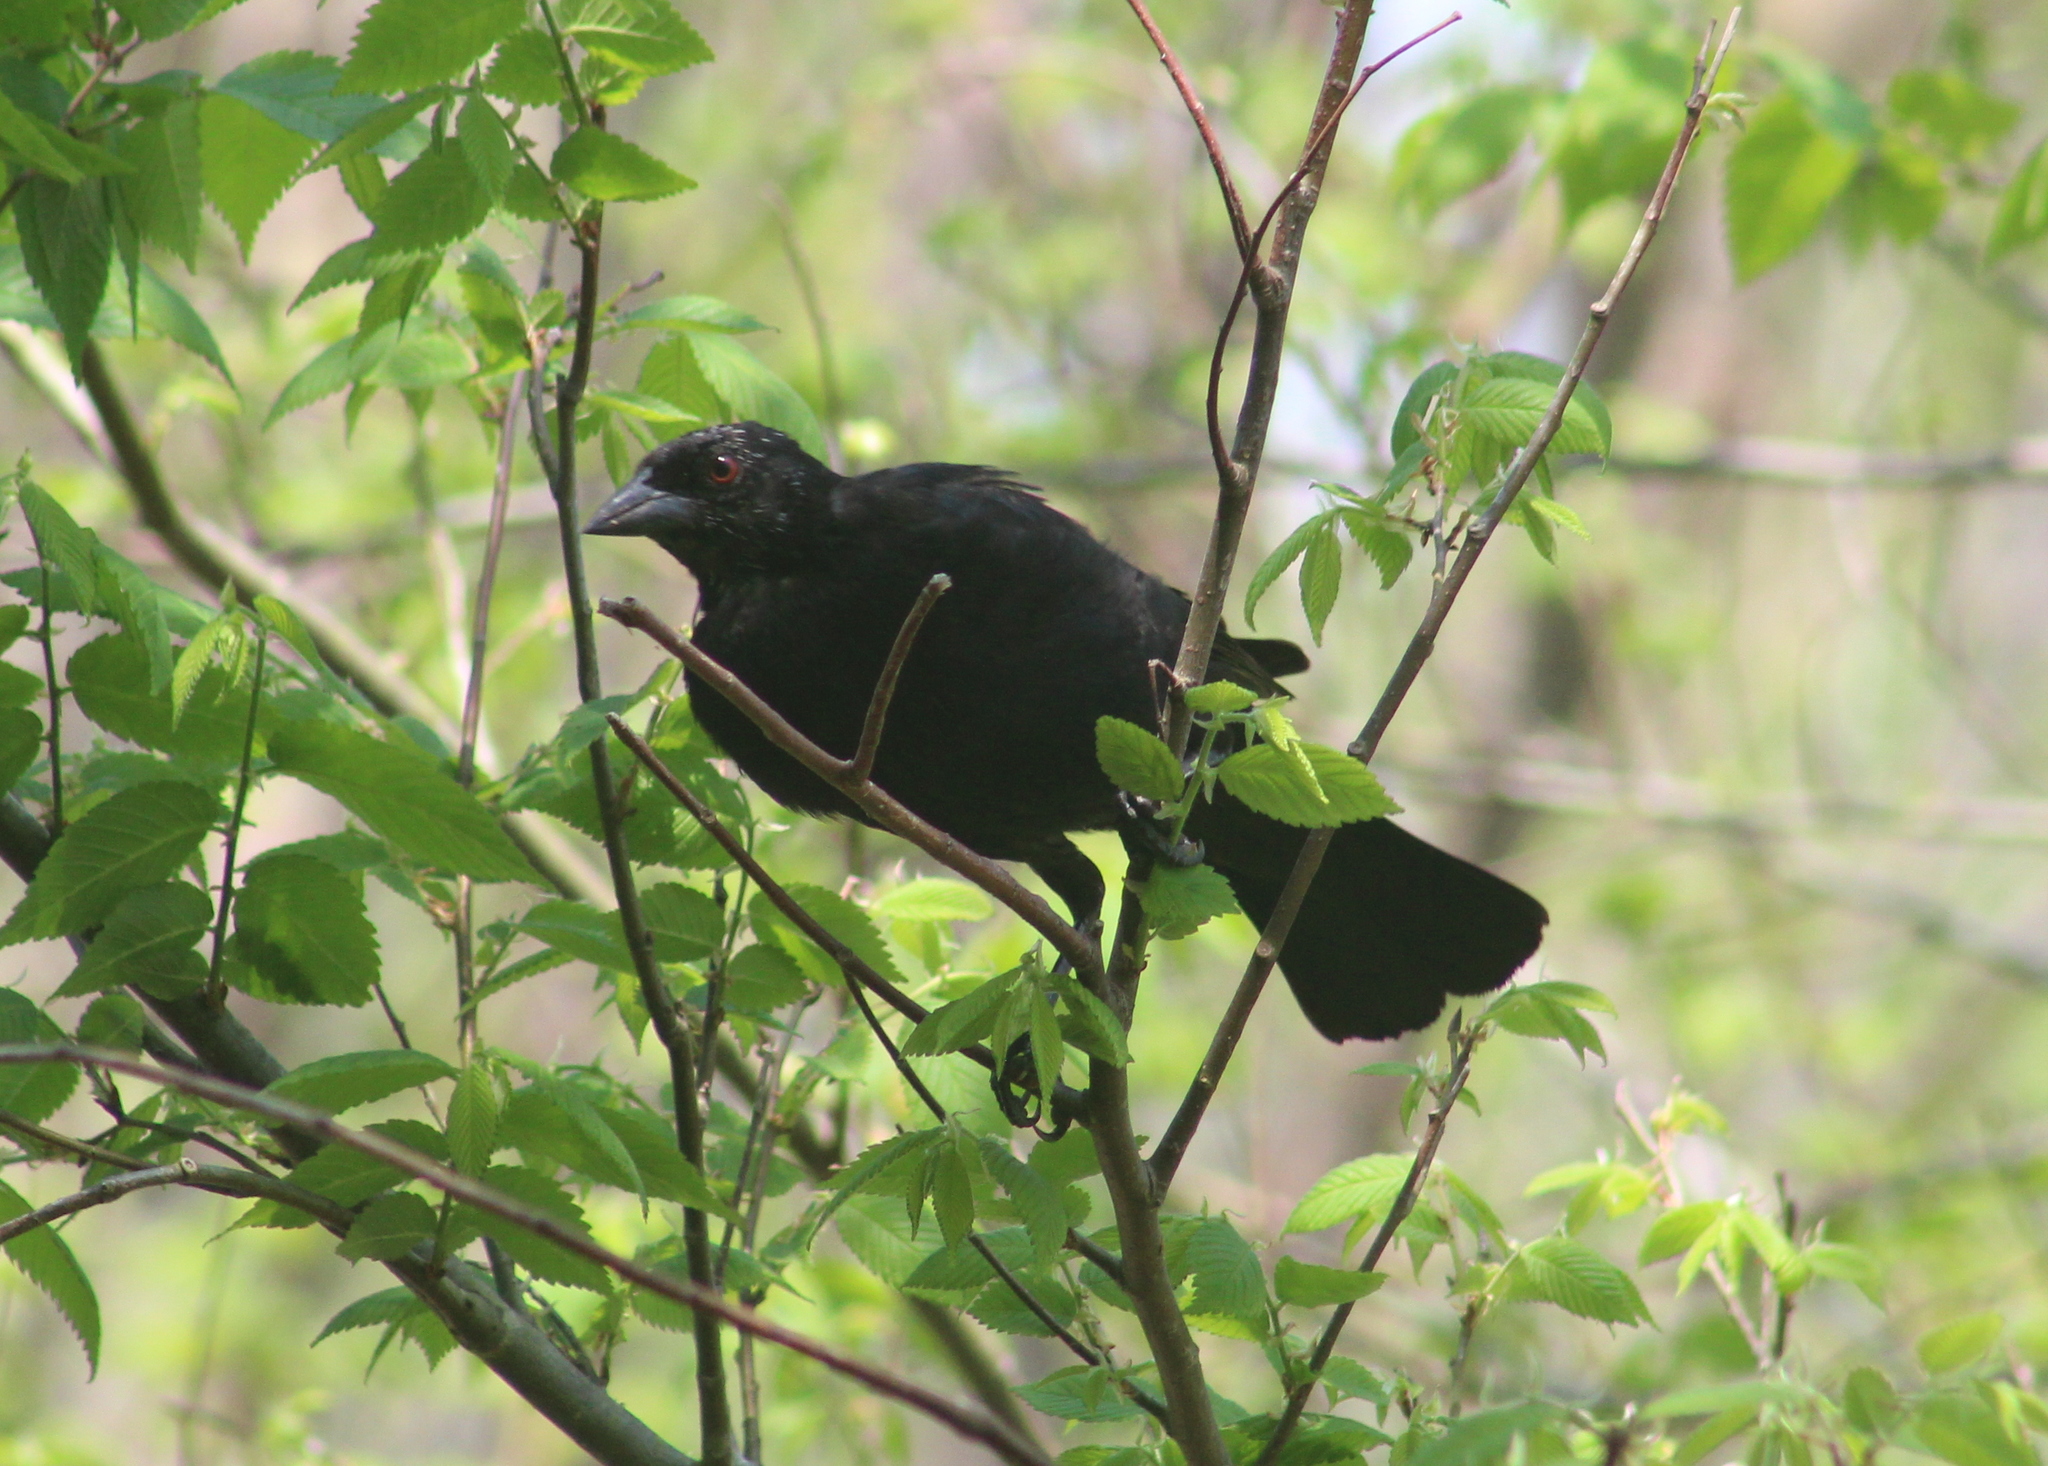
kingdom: Animalia
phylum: Chordata
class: Aves
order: Passeriformes
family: Icteridae
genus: Molothrus
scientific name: Molothrus aeneus
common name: Bronzed cowbird
